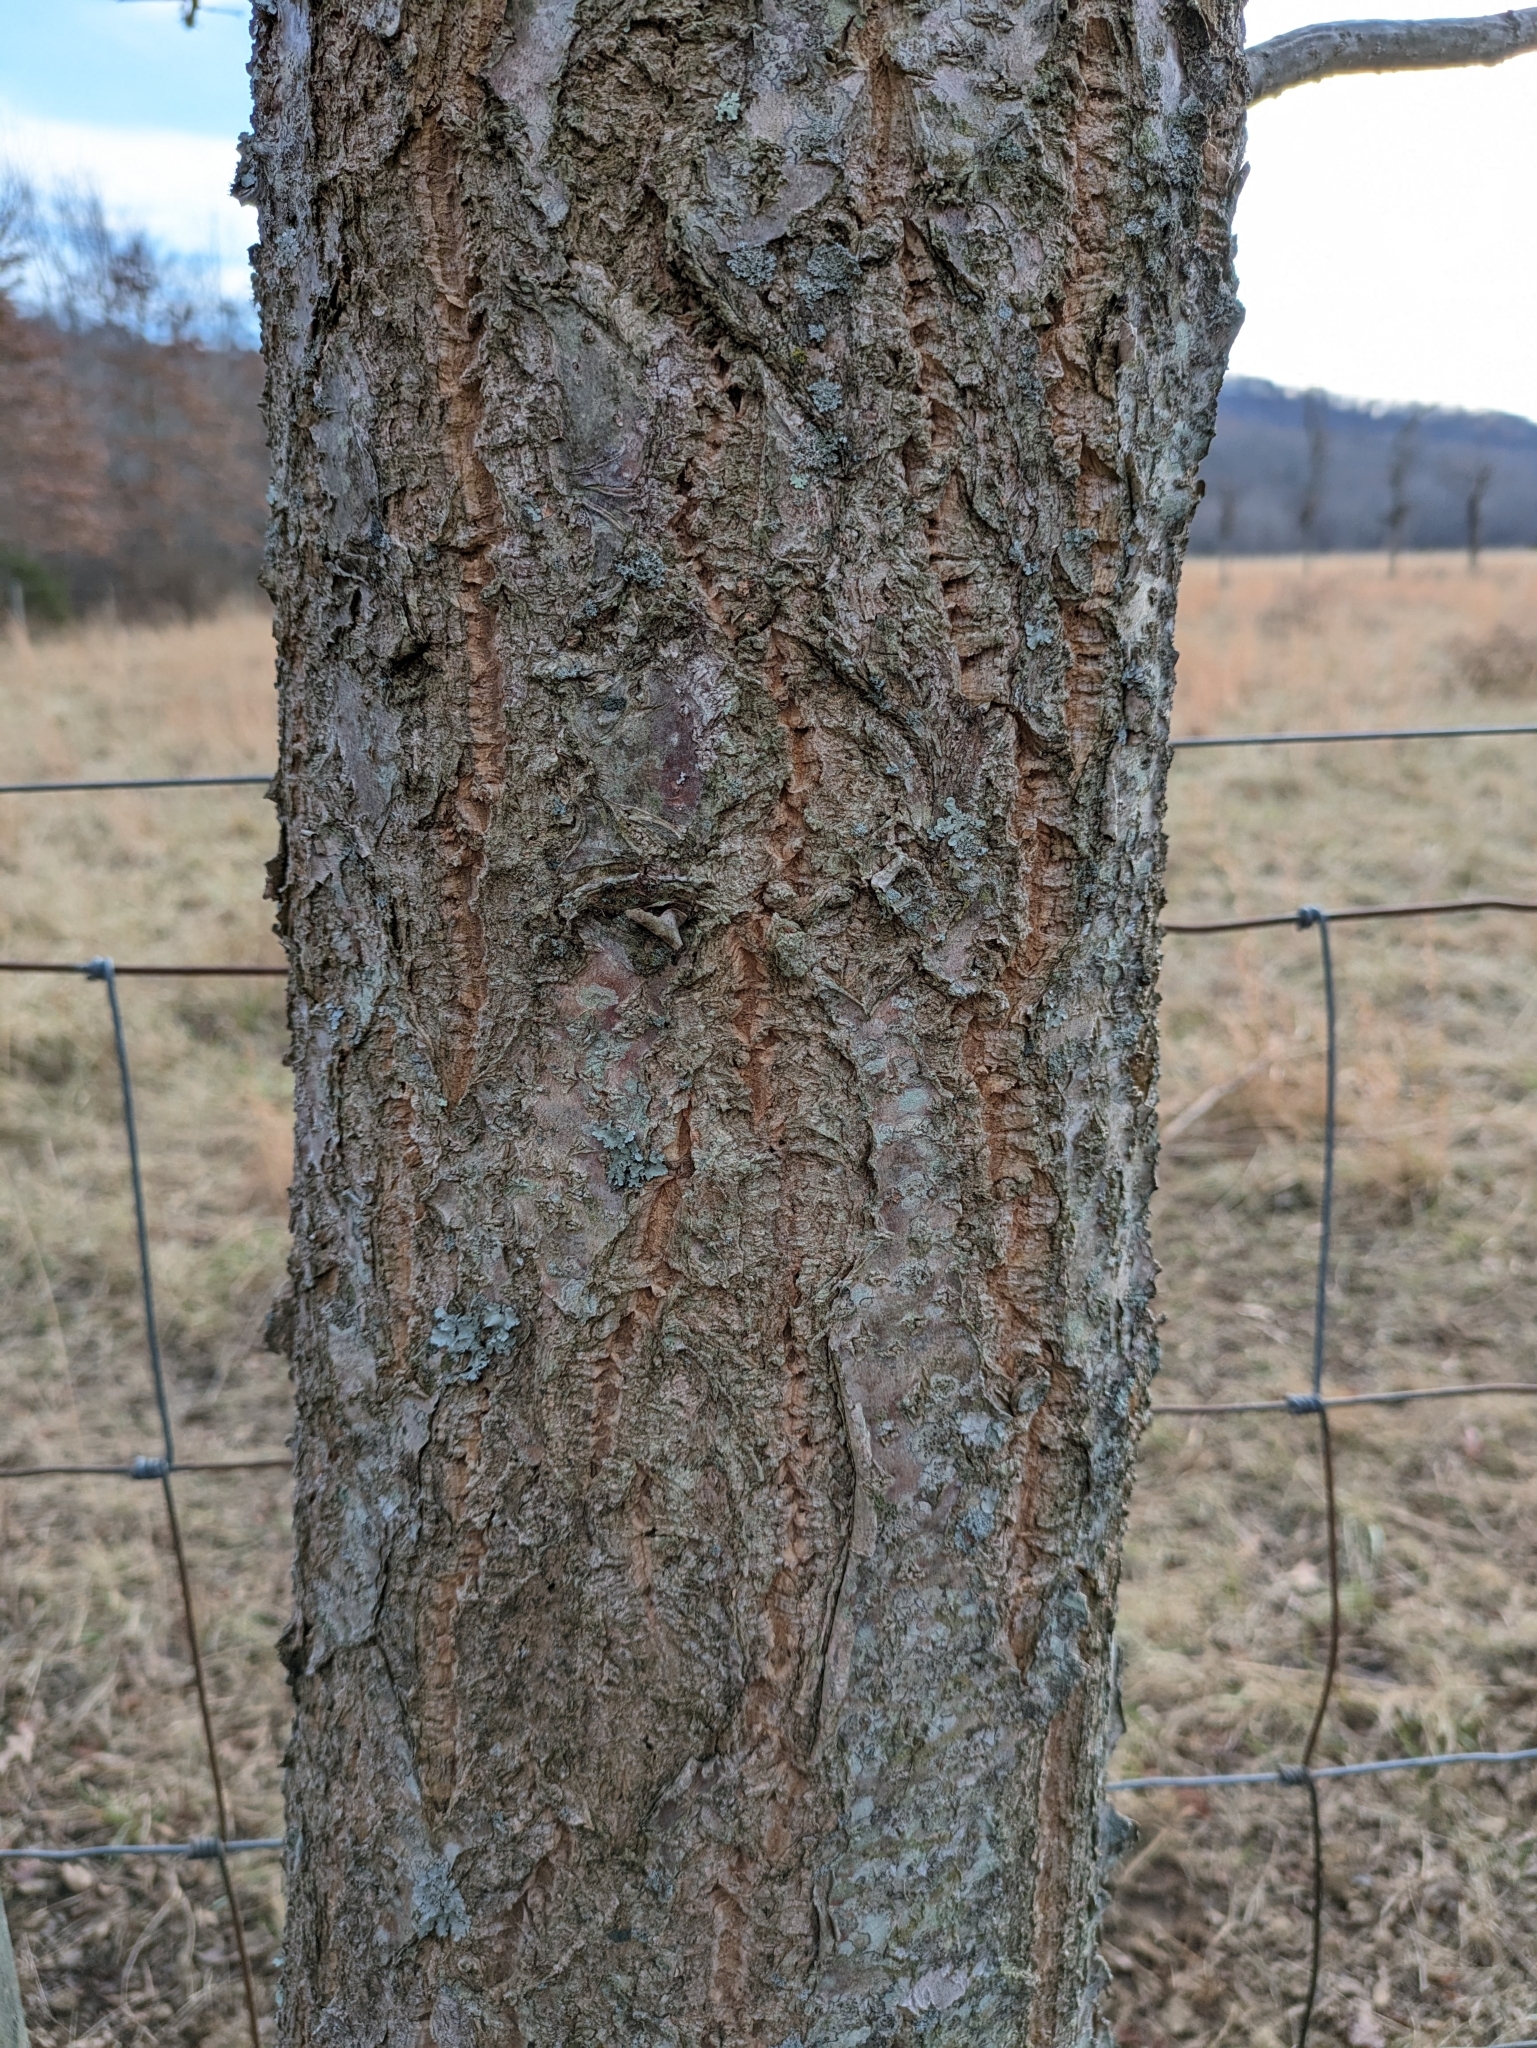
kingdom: Plantae
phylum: Tracheophyta
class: Magnoliopsida
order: Sapindales
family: Rutaceae
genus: Phellodendron
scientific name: Phellodendron amurense
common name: Amur corktree
